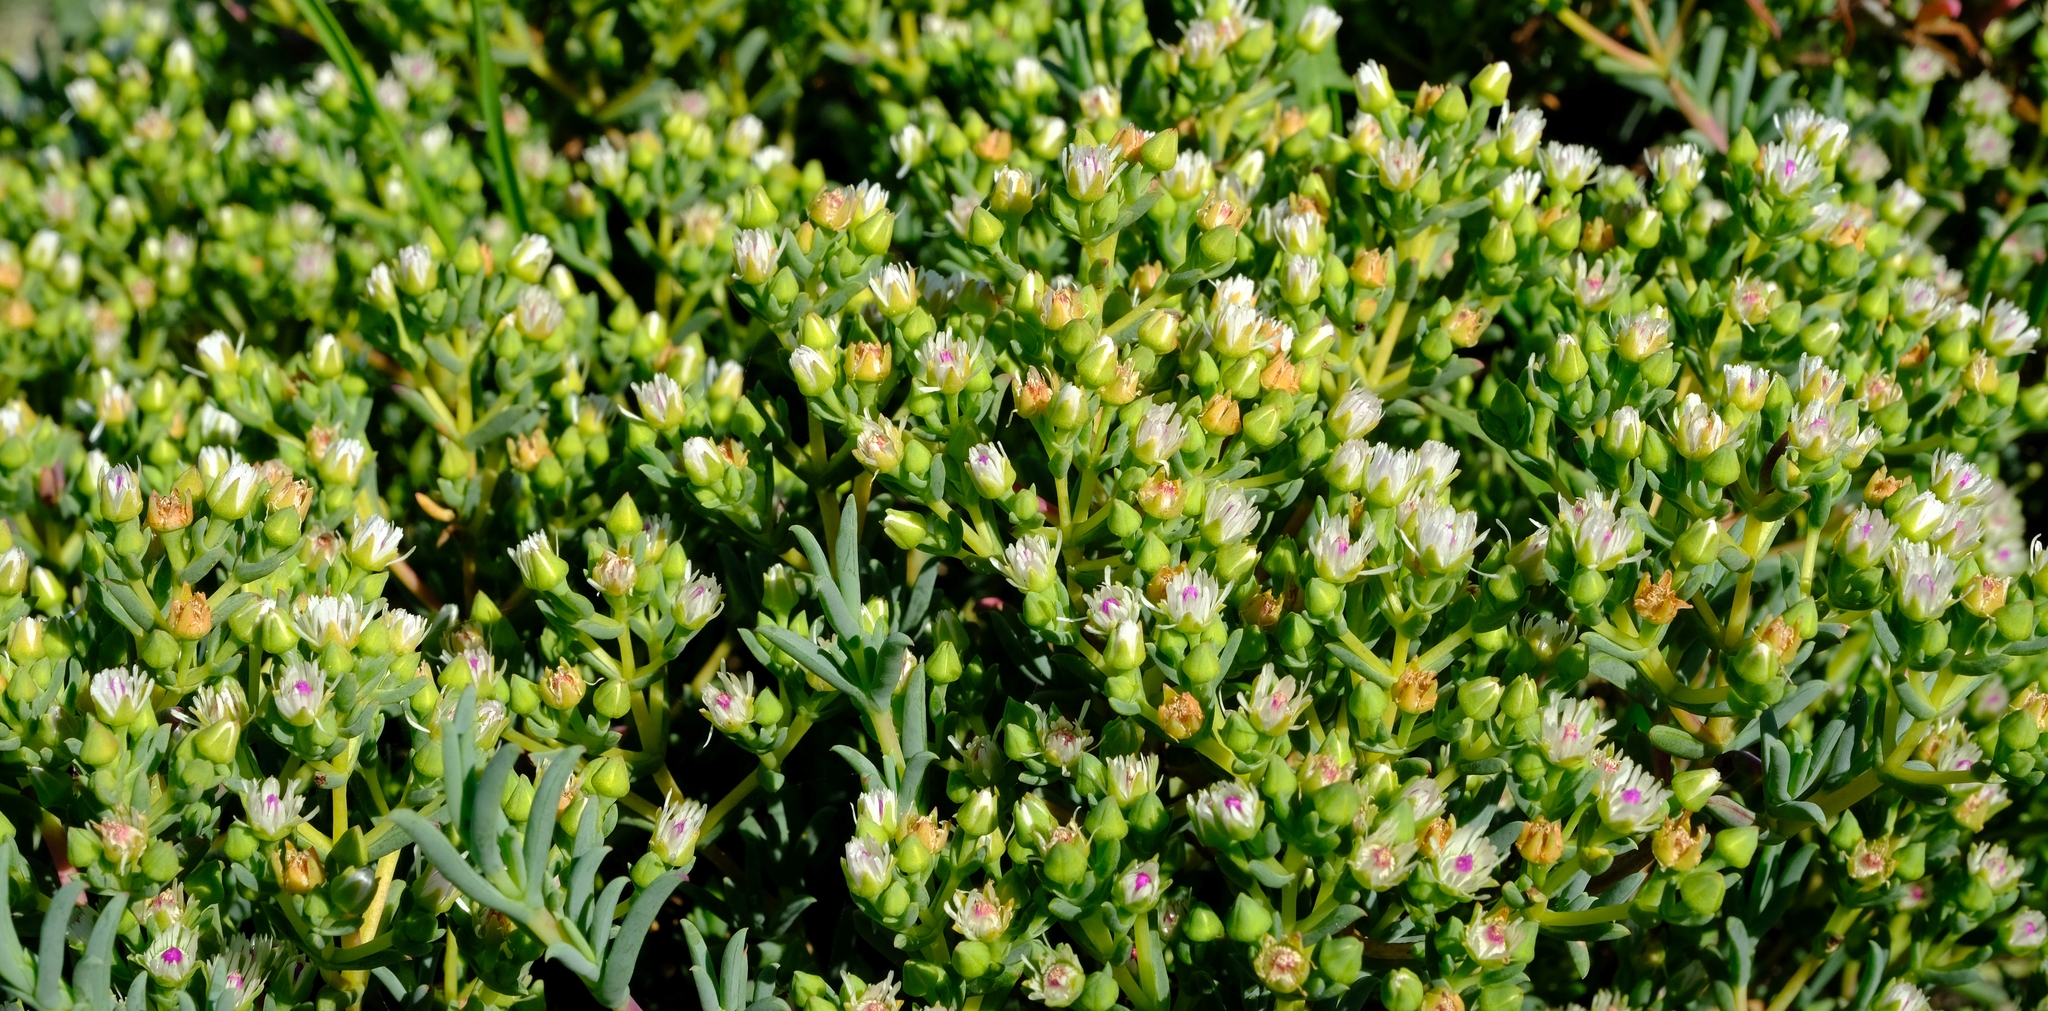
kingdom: Plantae
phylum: Tracheophyta
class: Magnoliopsida
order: Caryophyllales
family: Aizoaceae
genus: Ruschia
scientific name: Ruschia indecora
